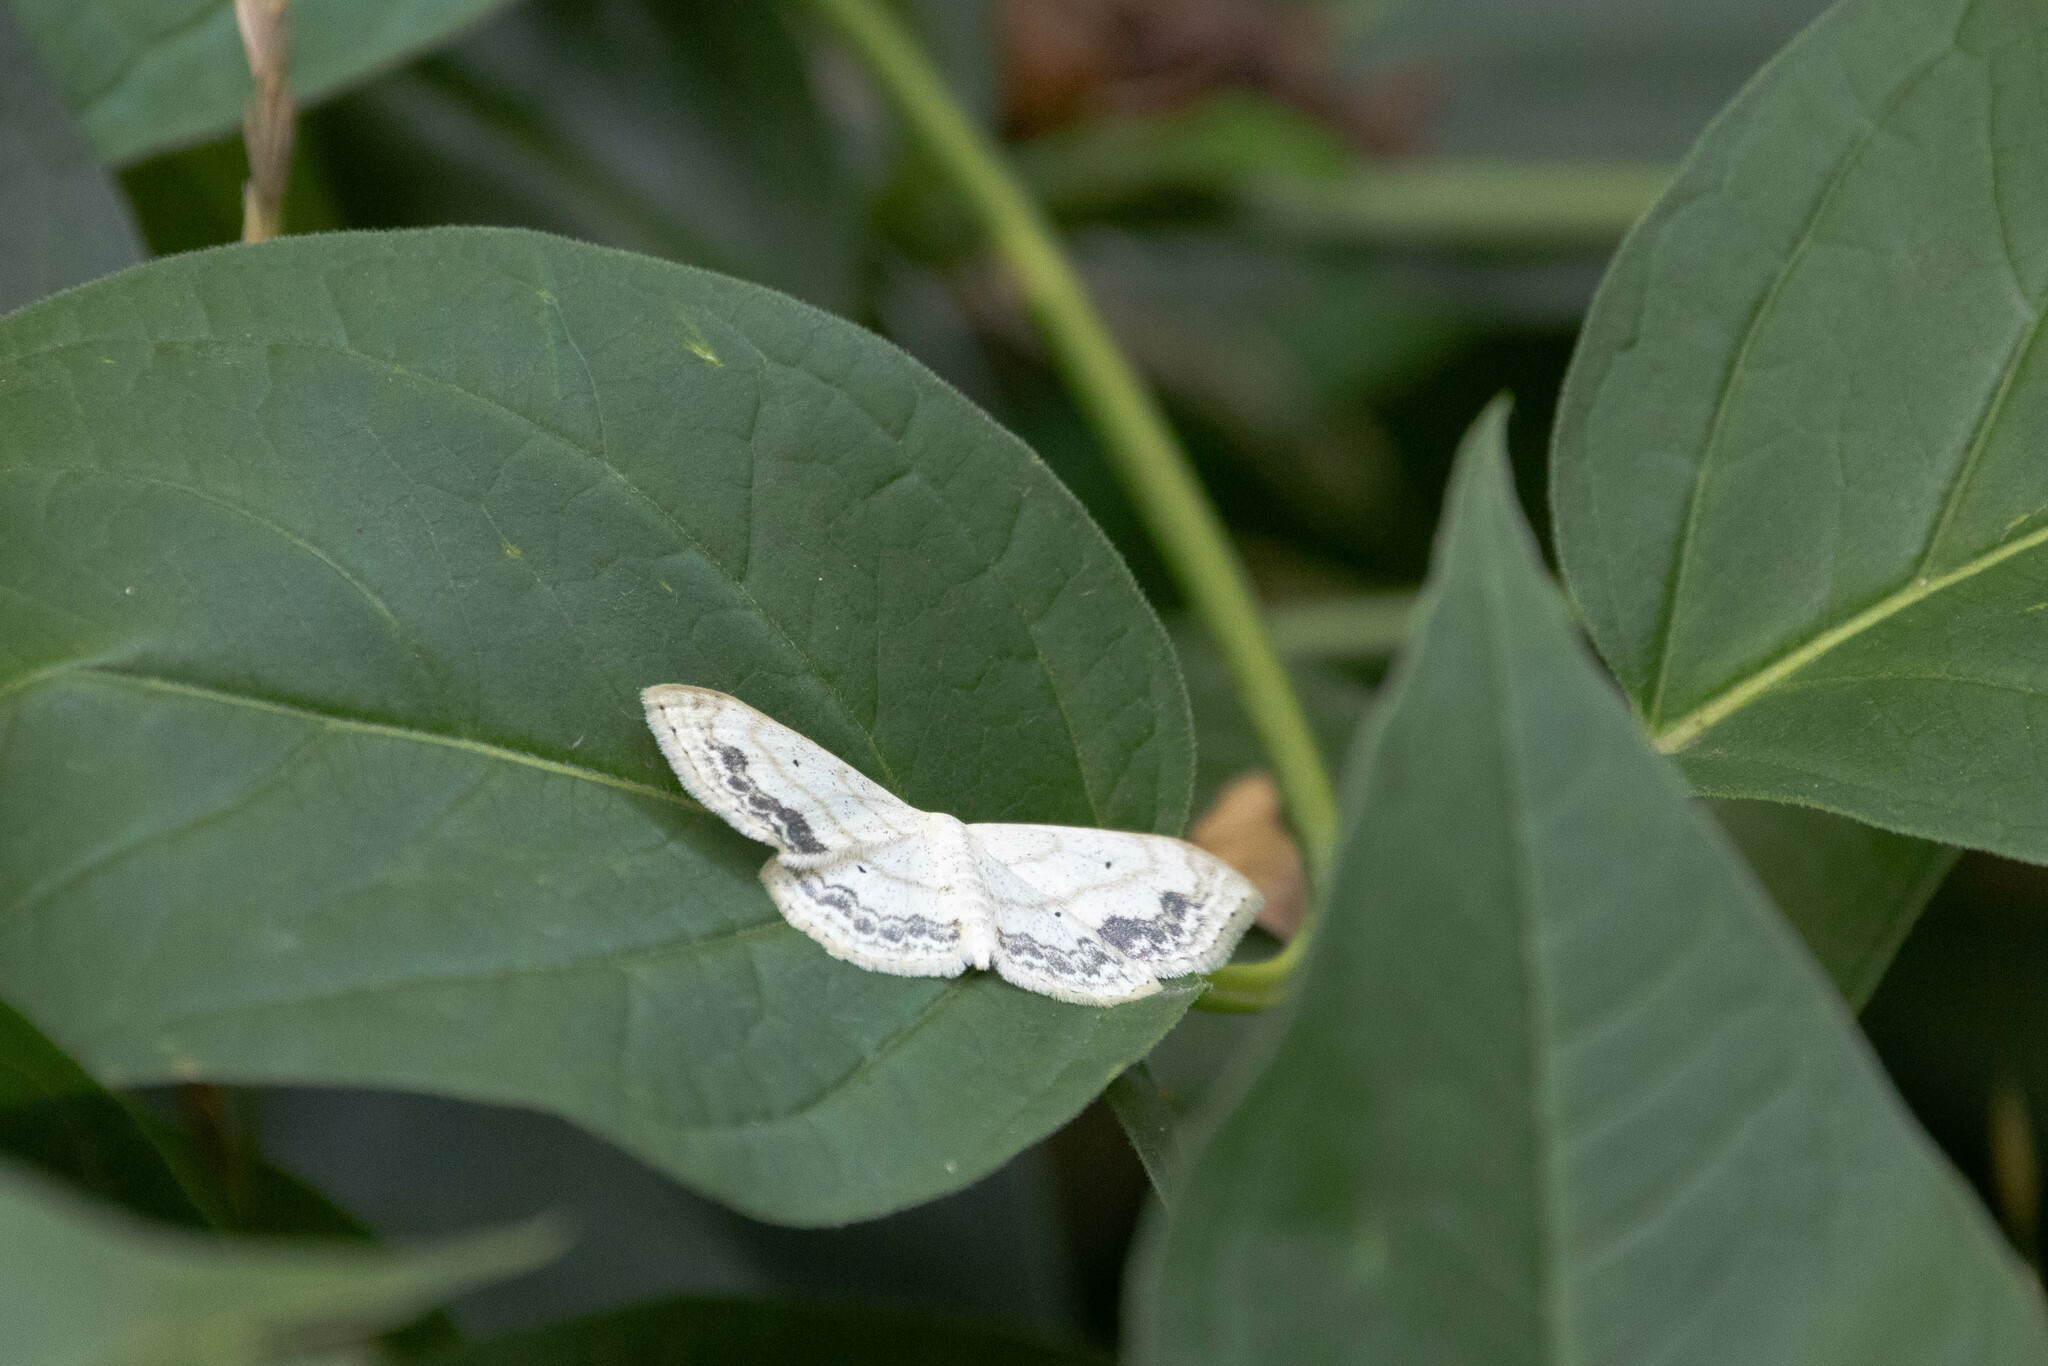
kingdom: Animalia
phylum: Arthropoda
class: Insecta
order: Lepidoptera
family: Geometridae
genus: Scopula
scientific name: Scopula limboundata
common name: Large lace border
